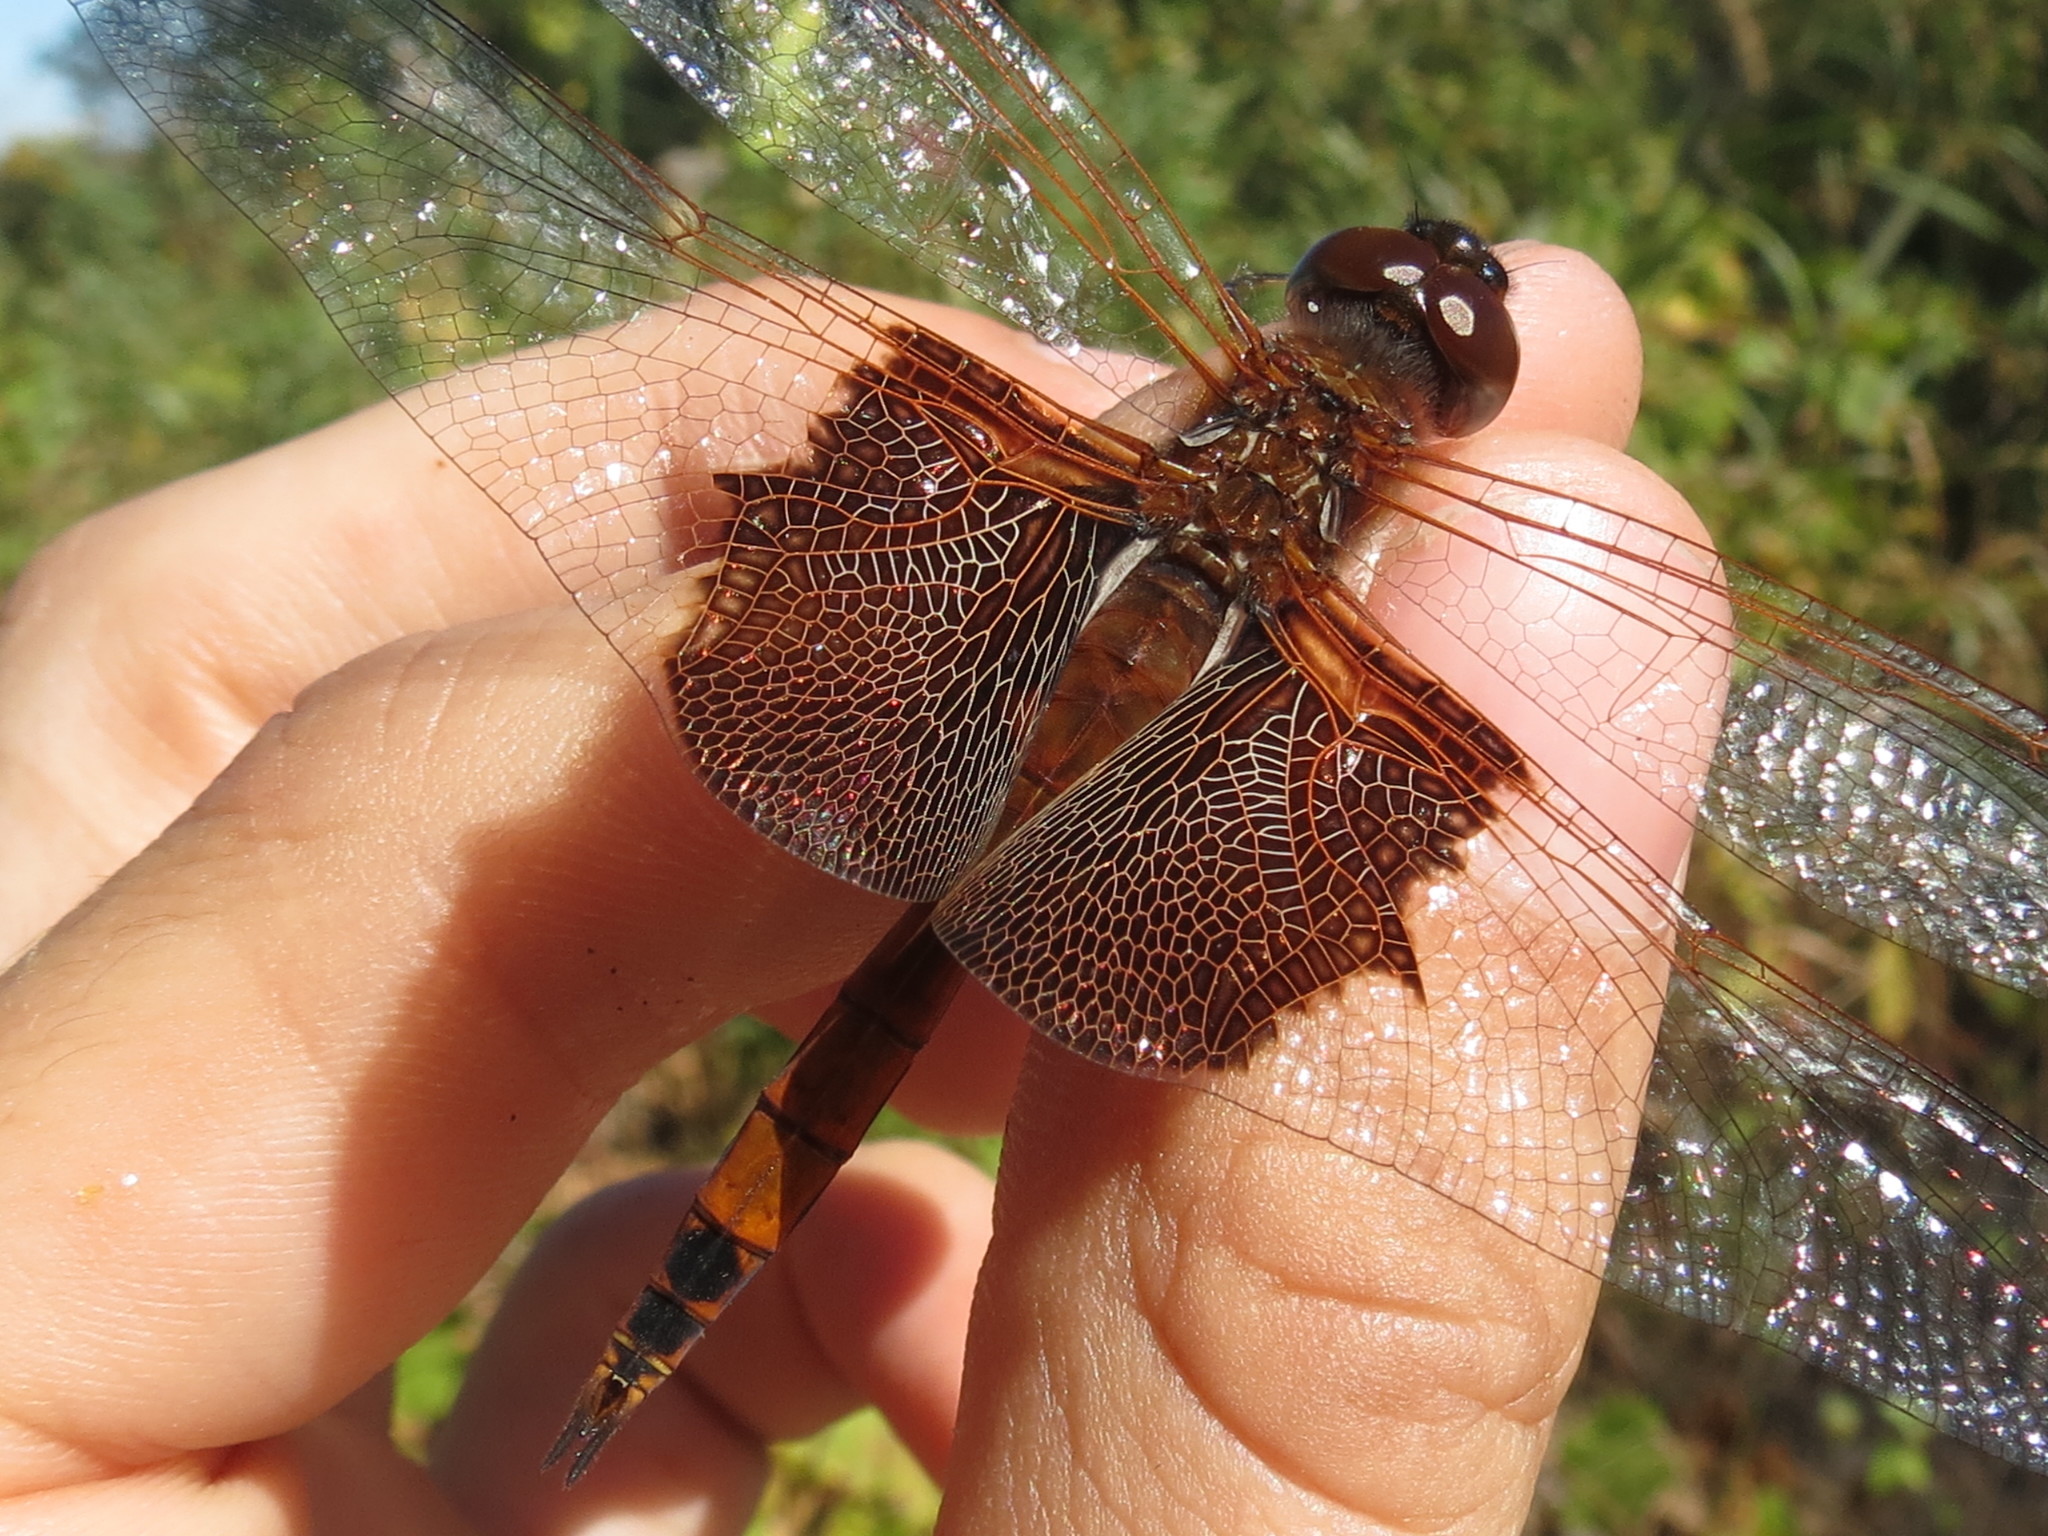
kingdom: Animalia
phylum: Arthropoda
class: Insecta
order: Odonata
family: Libellulidae
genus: Tramea
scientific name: Tramea carolina
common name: Carolina saddlebags
